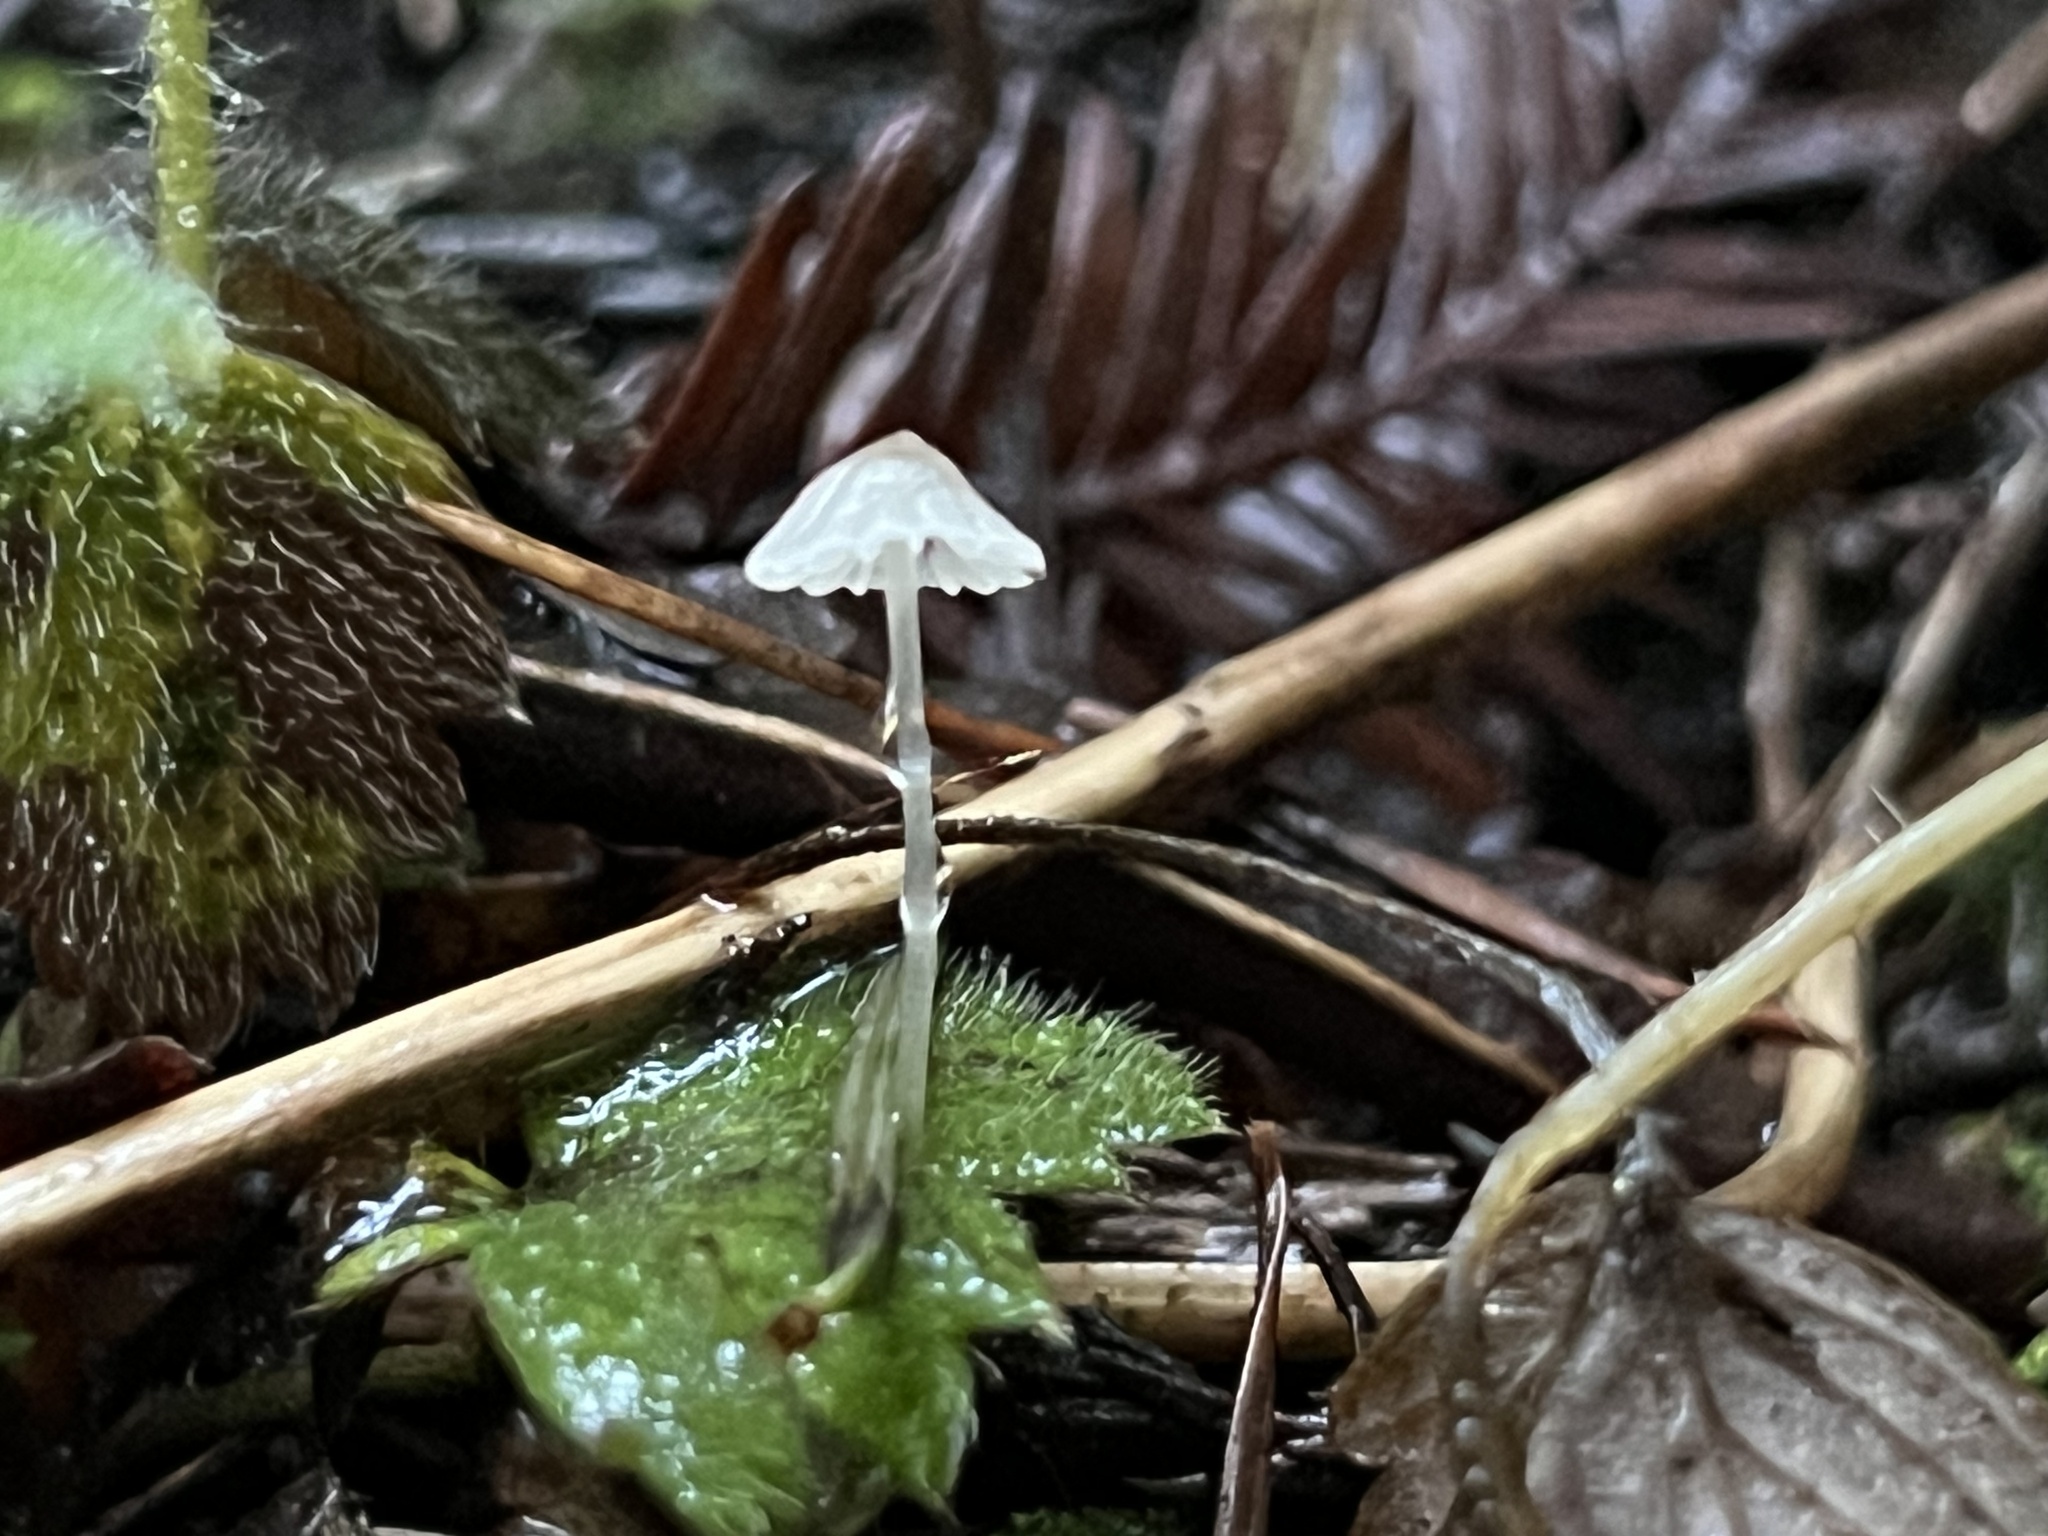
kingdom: Fungi
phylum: Basidiomycota
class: Agaricomycetes
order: Agaricales
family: Mycenaceae
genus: Roridomyces
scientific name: Roridomyces roridus
